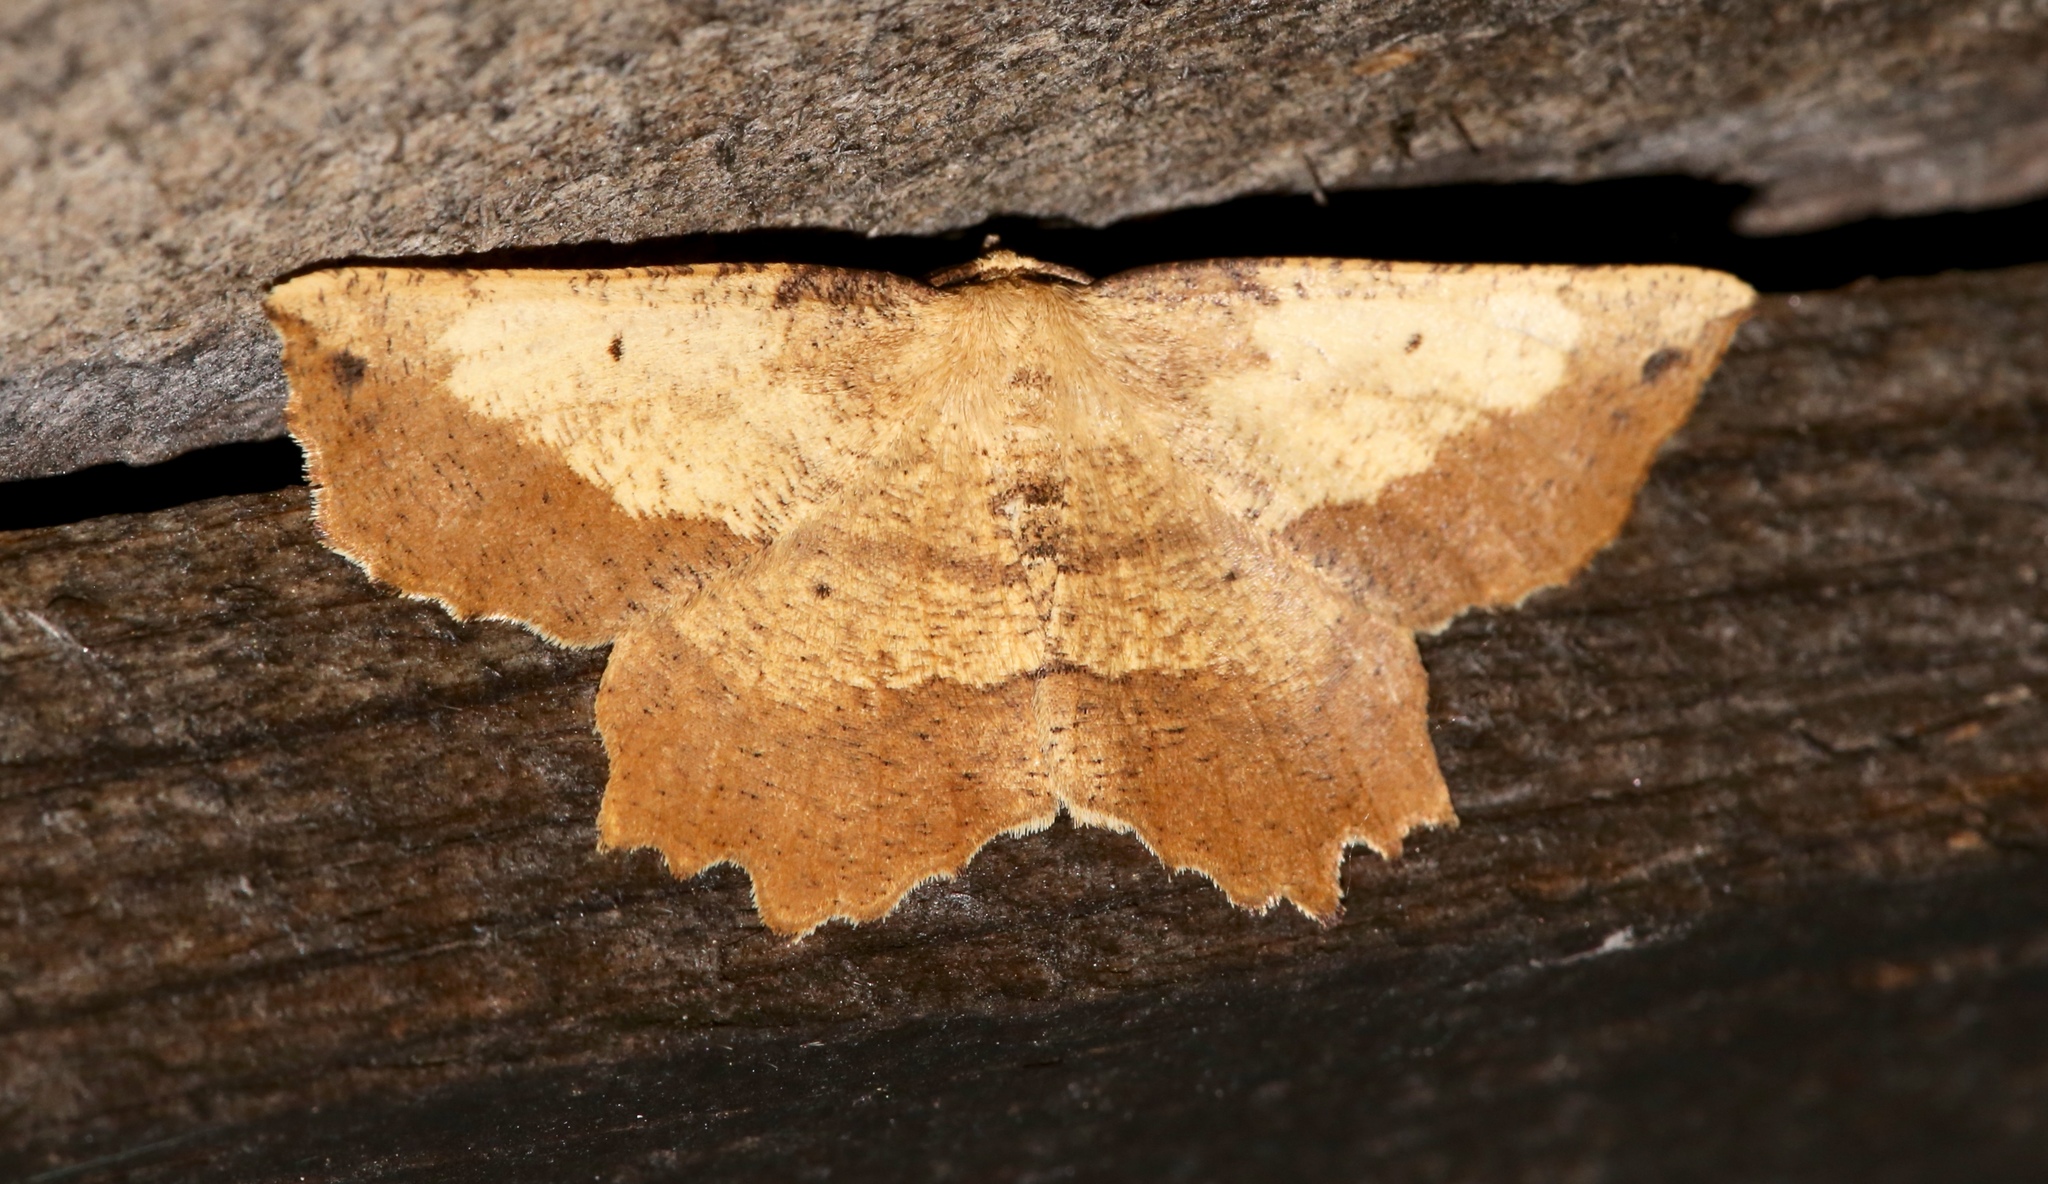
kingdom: Animalia
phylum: Arthropoda
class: Insecta
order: Lepidoptera
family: Geometridae
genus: Euchlaena
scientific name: Euchlaena muzaria
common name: Muzaria euchlaena
